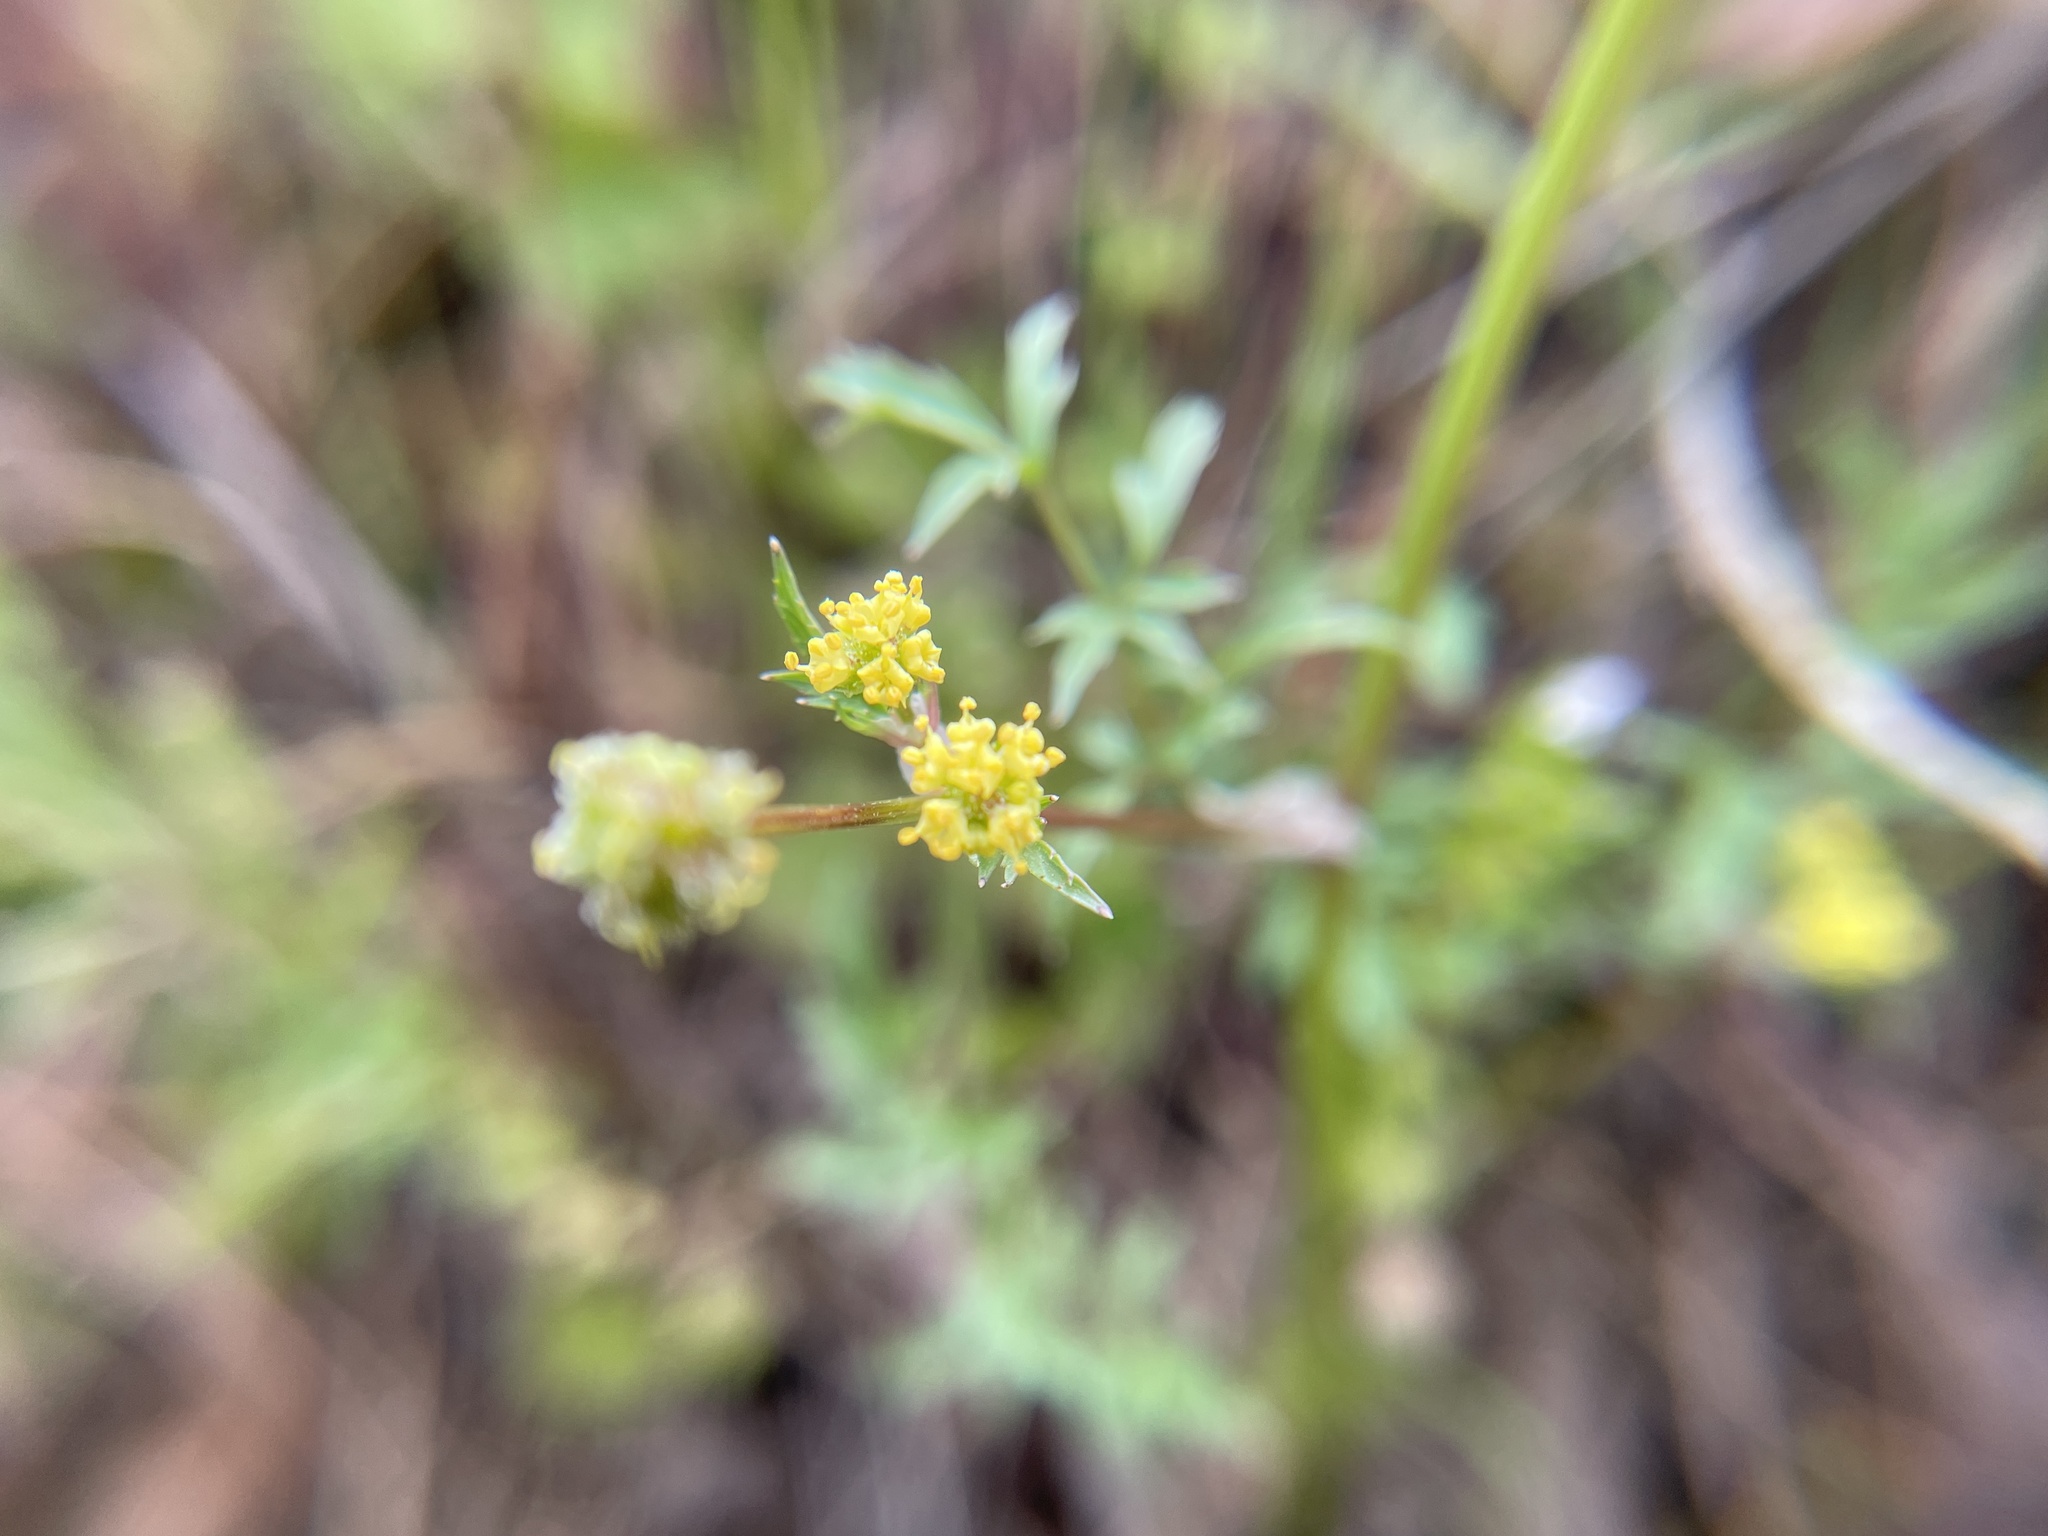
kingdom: Plantae
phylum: Tracheophyta
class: Magnoliopsida
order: Apiales
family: Apiaceae
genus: Sanicula
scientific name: Sanicula bipinnata
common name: Poison sanicle
